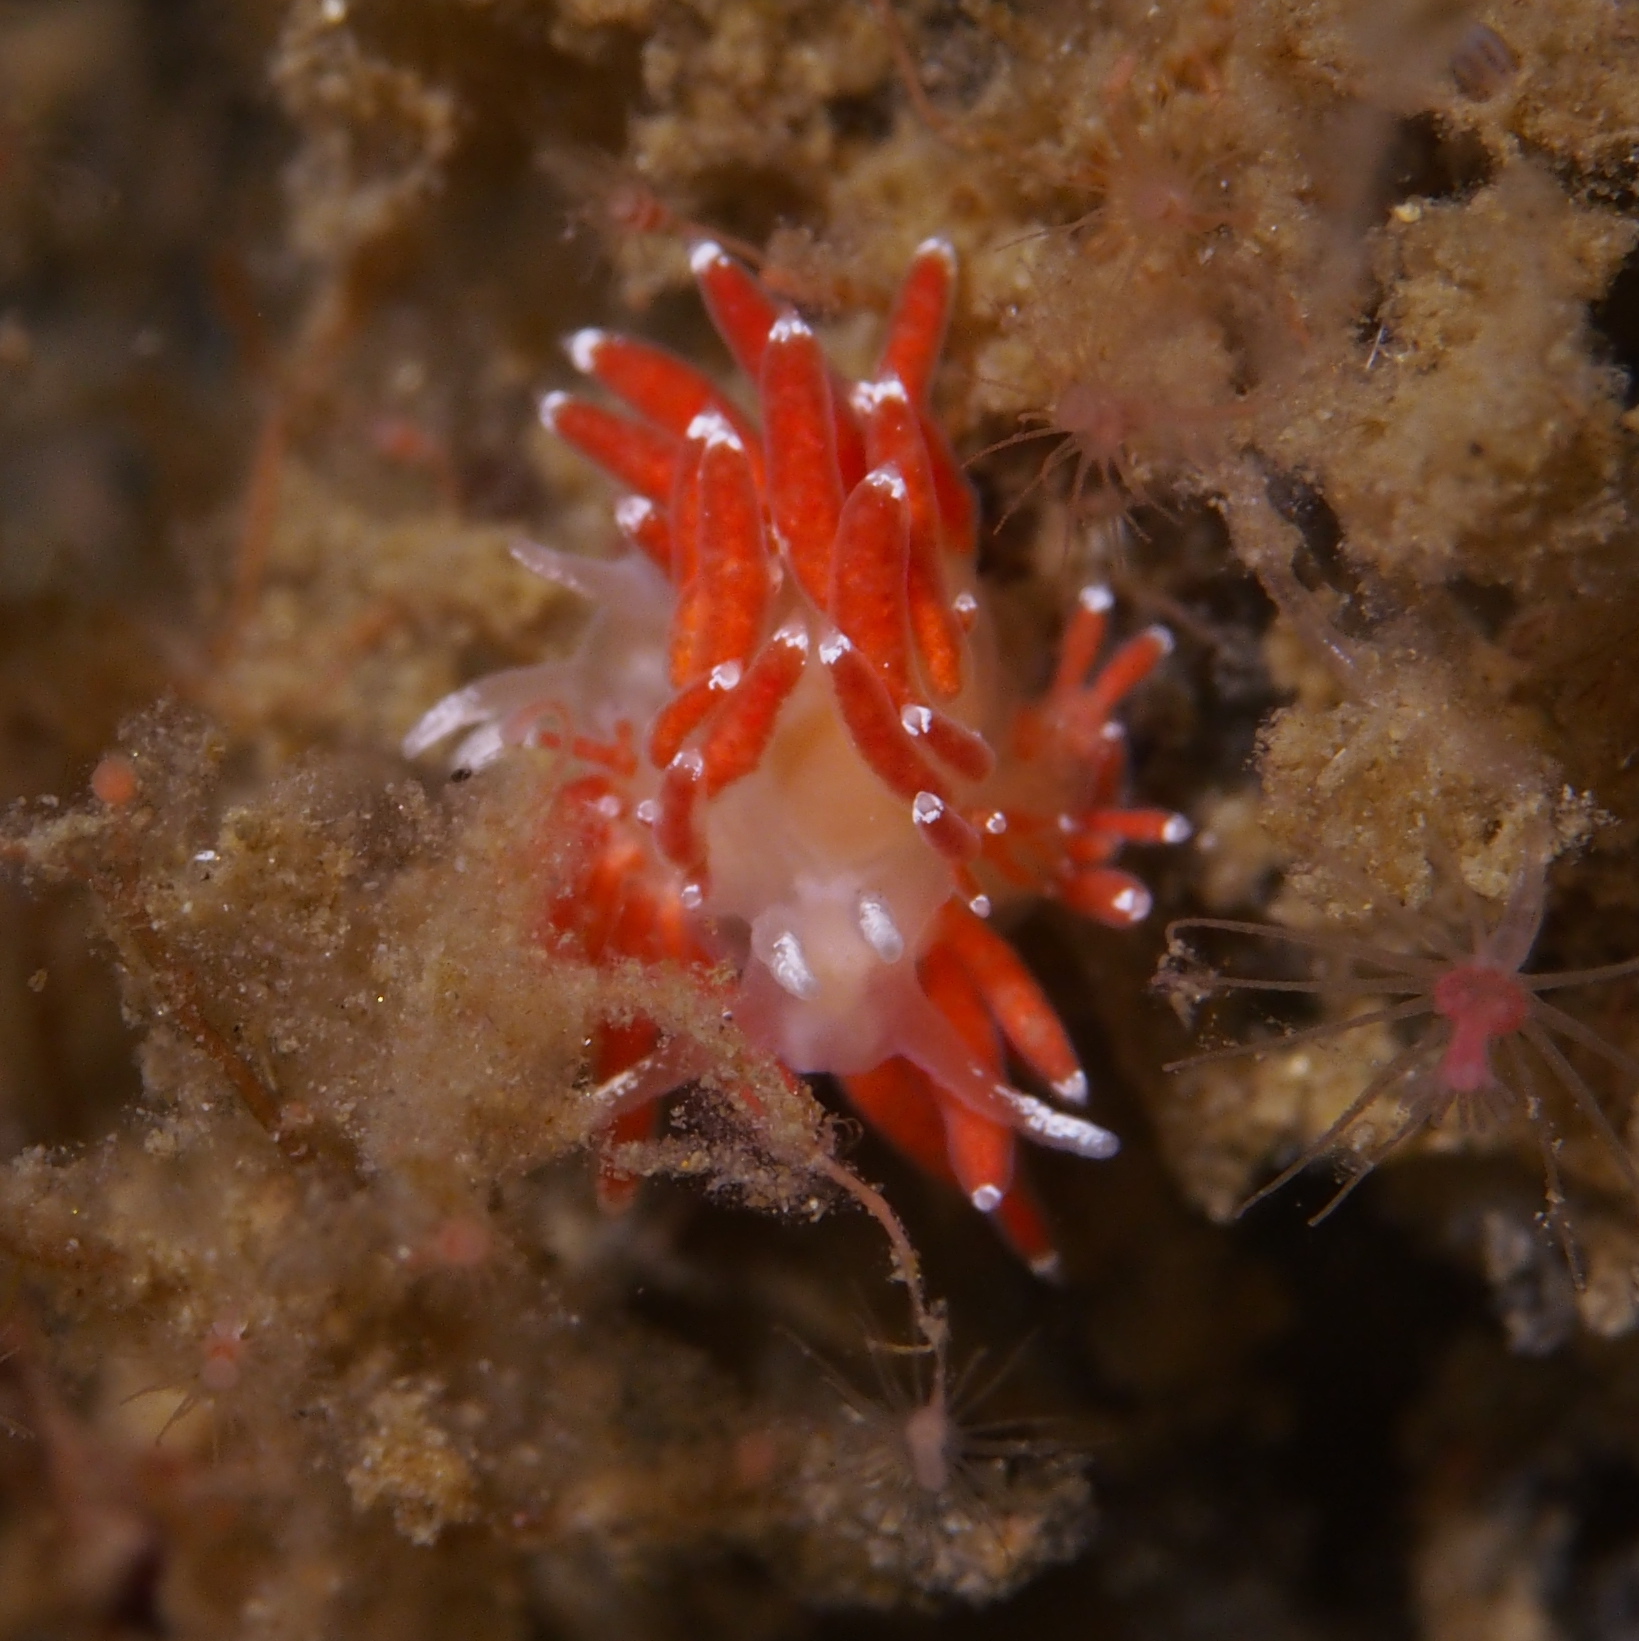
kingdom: Animalia
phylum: Mollusca
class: Gastropoda
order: Nudibranchia
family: Coryphellidae
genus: Coryphella
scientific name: Coryphella gracilis
